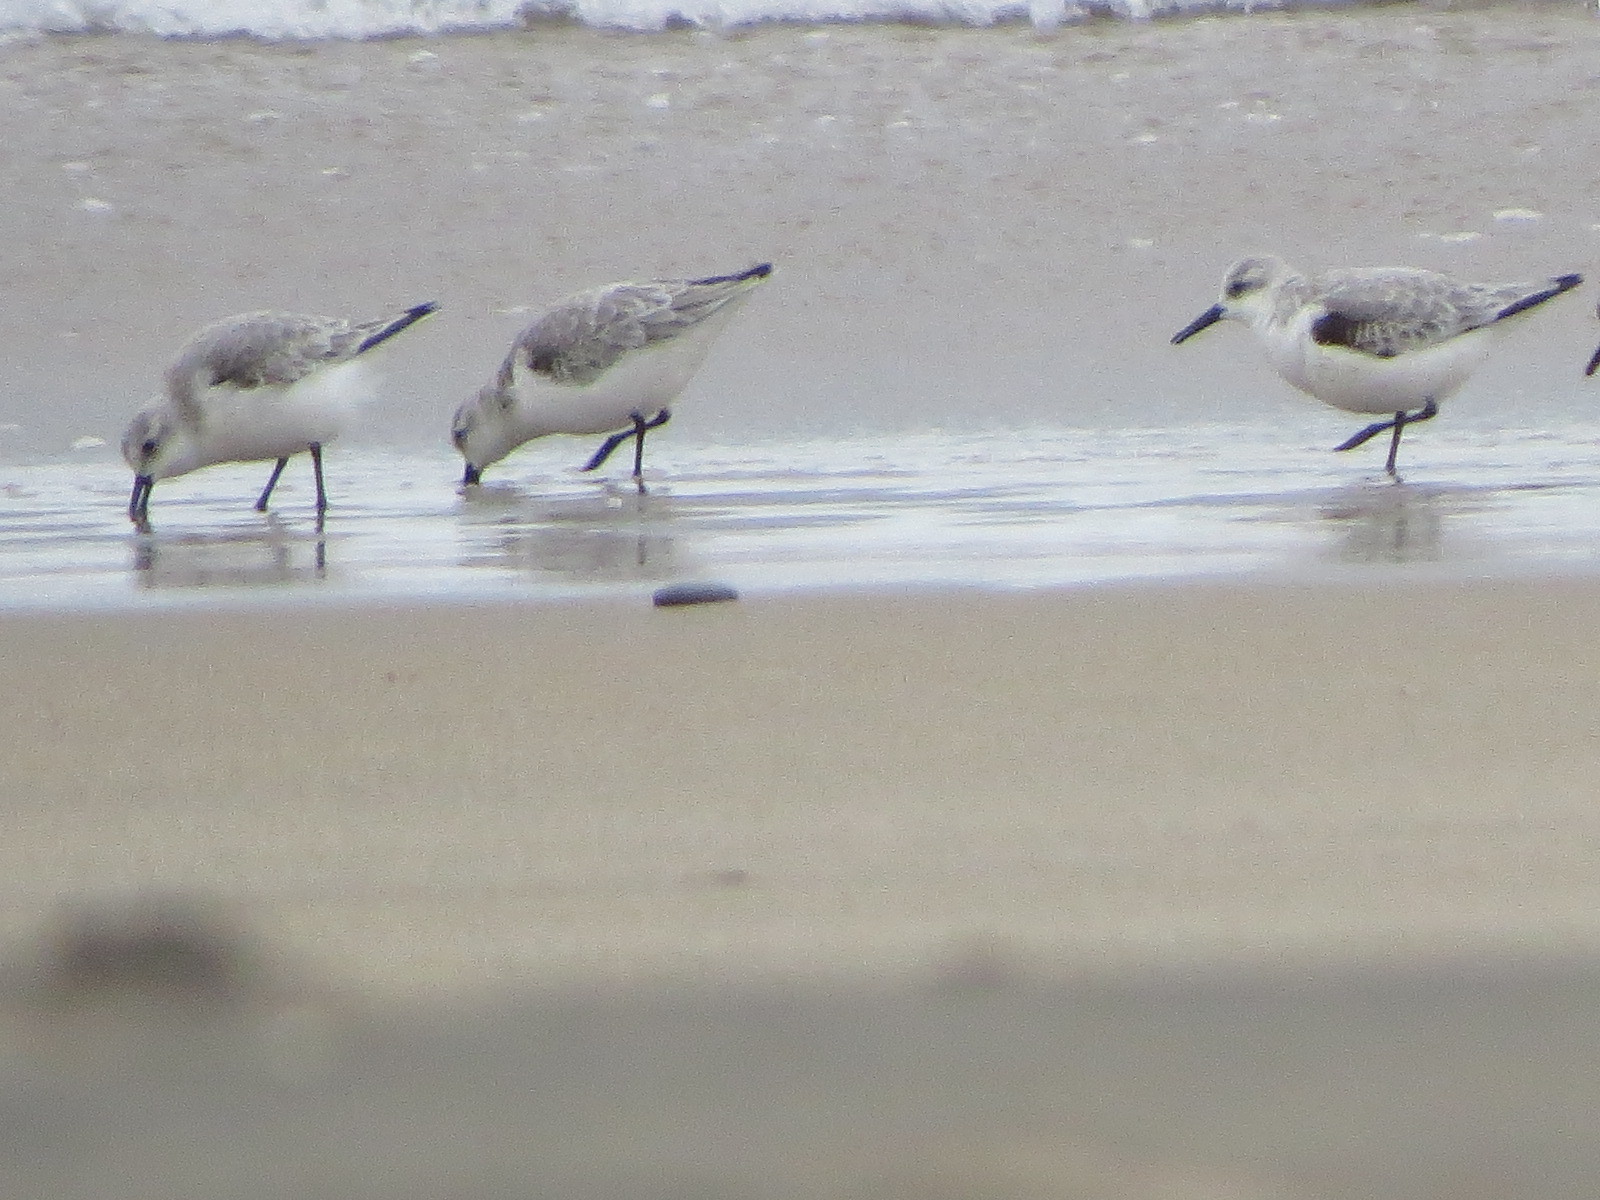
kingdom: Animalia
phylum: Chordata
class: Aves
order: Charadriiformes
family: Scolopacidae
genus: Calidris
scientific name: Calidris alba
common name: Sanderling
